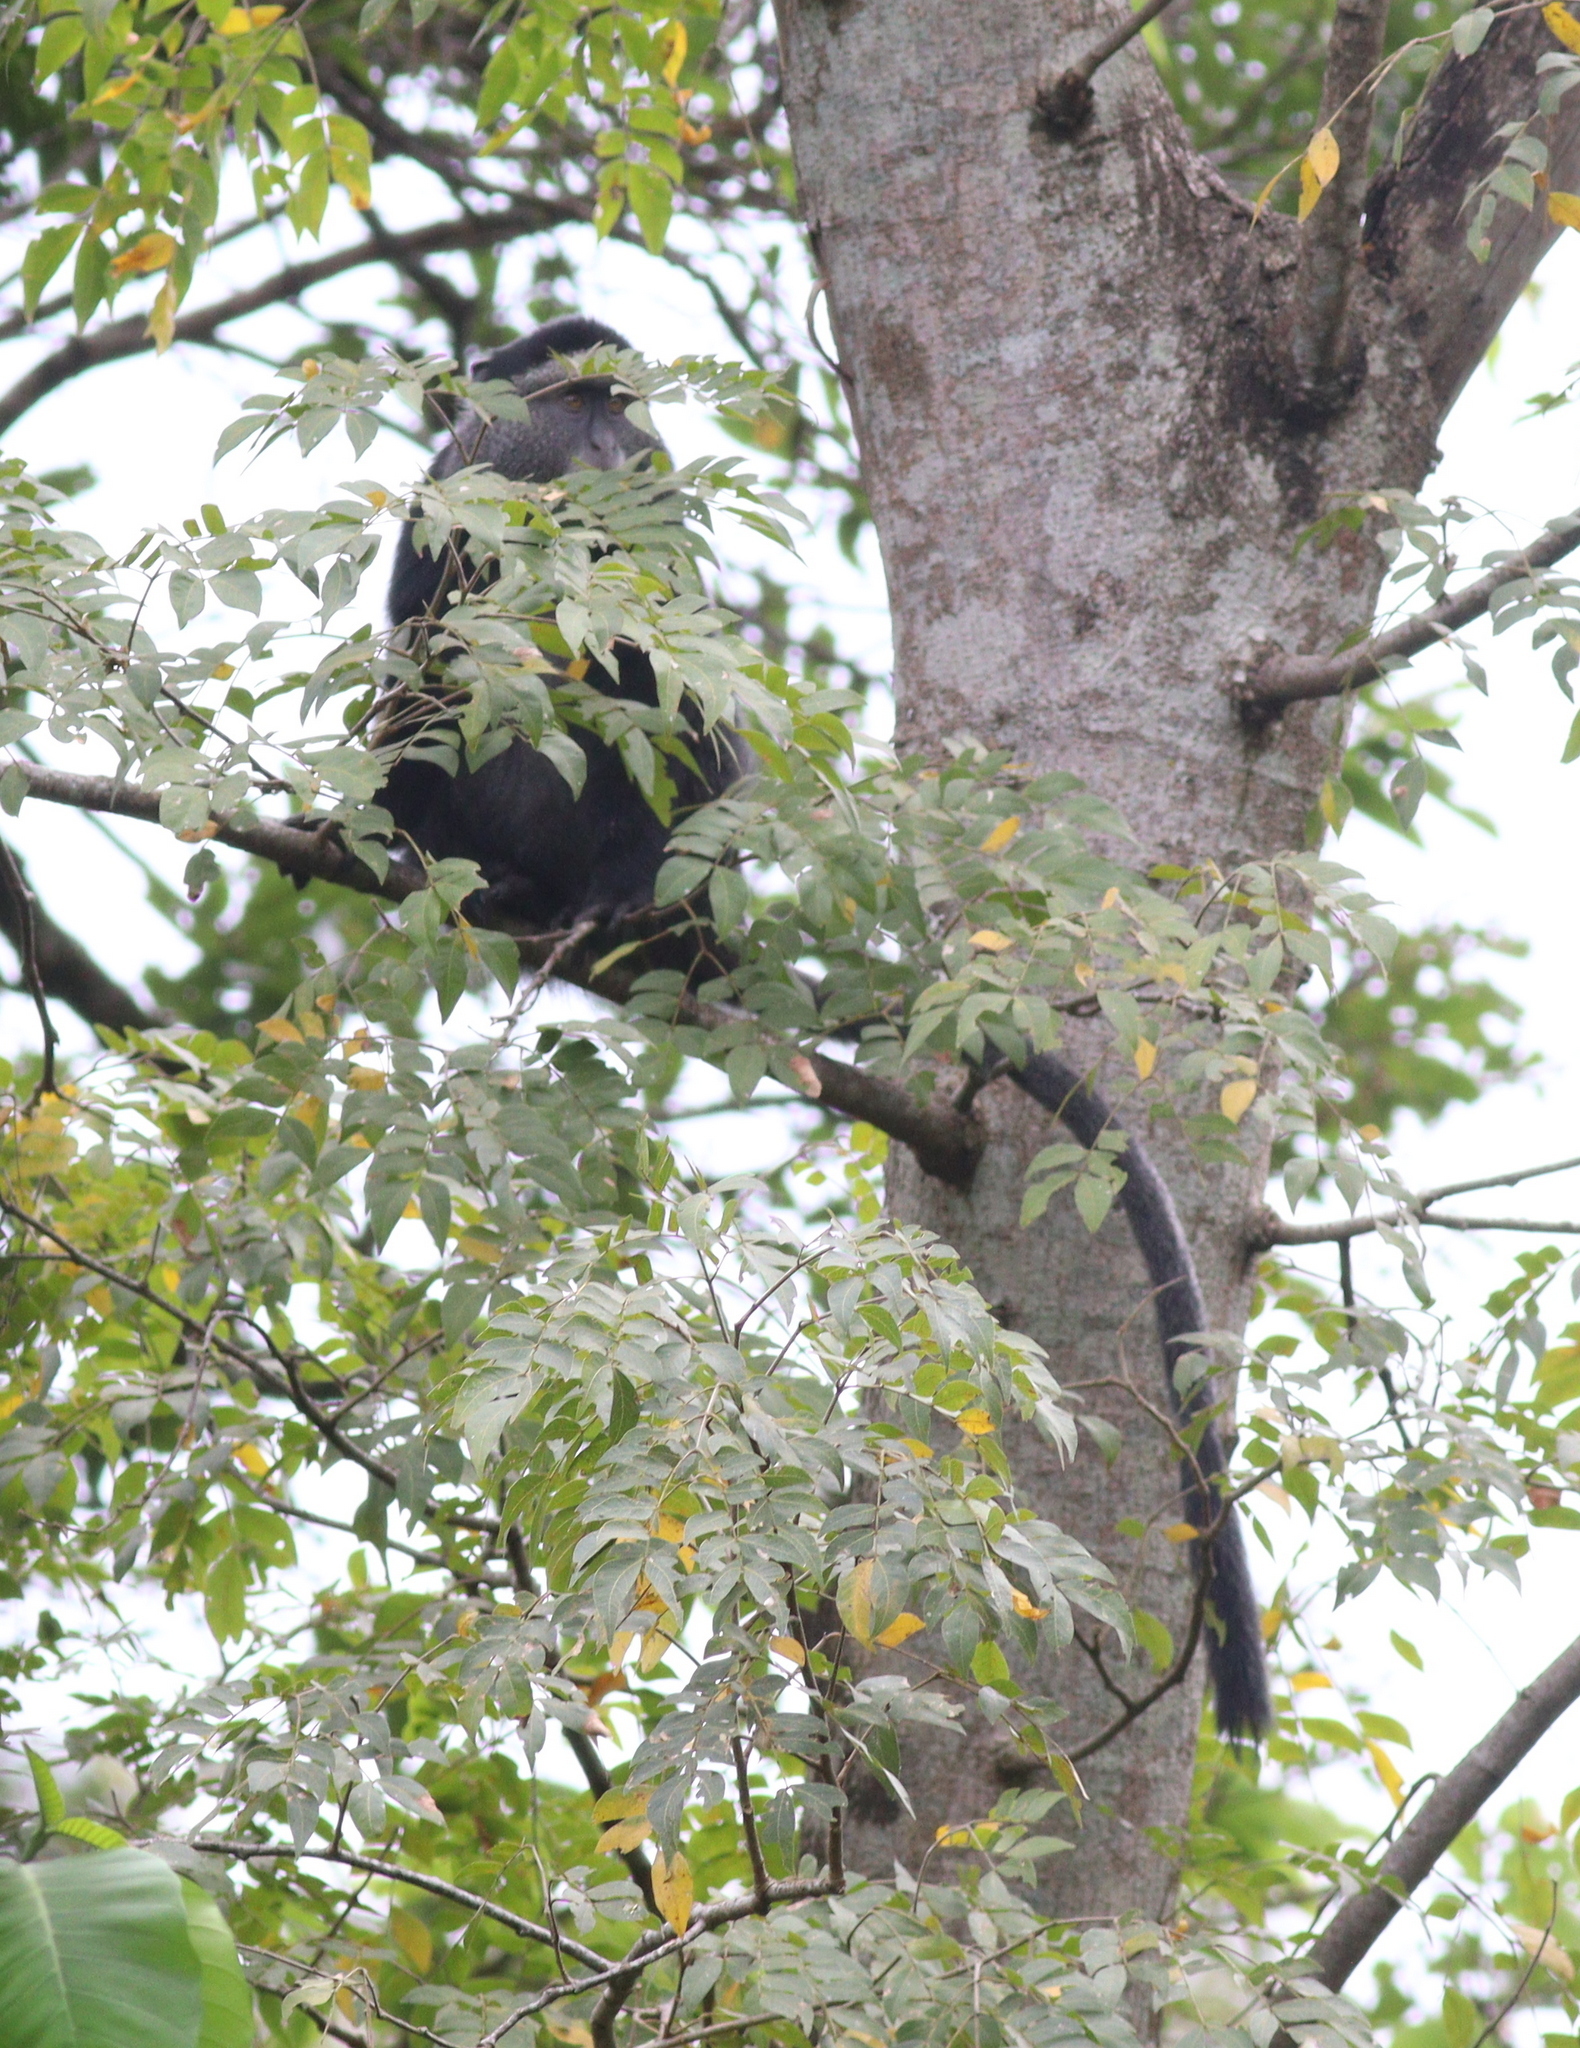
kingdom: Animalia
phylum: Chordata
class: Mammalia
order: Primates
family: Cercopithecidae
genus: Cercopithecus
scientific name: Cercopithecus mitis
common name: Blue monkey
